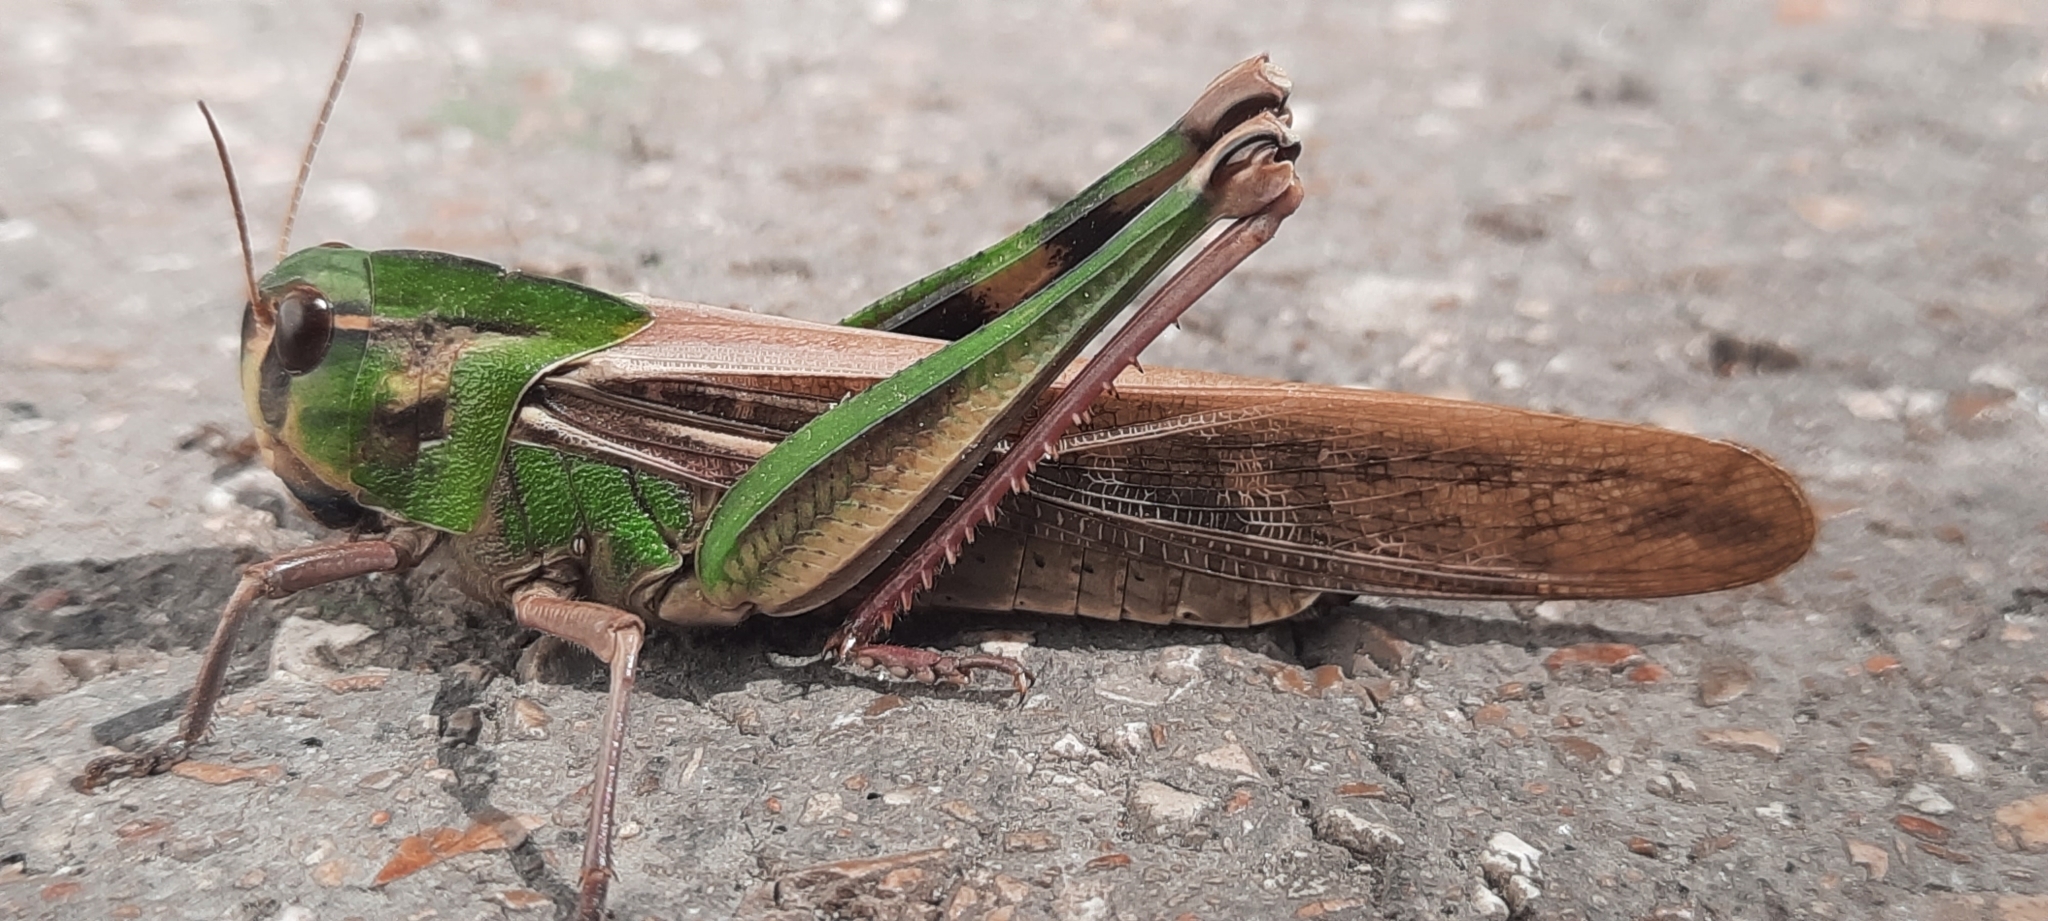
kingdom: Animalia
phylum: Arthropoda
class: Insecta
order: Orthoptera
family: Acrididae
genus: Locusta
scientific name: Locusta migratoria
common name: Migratory locust
